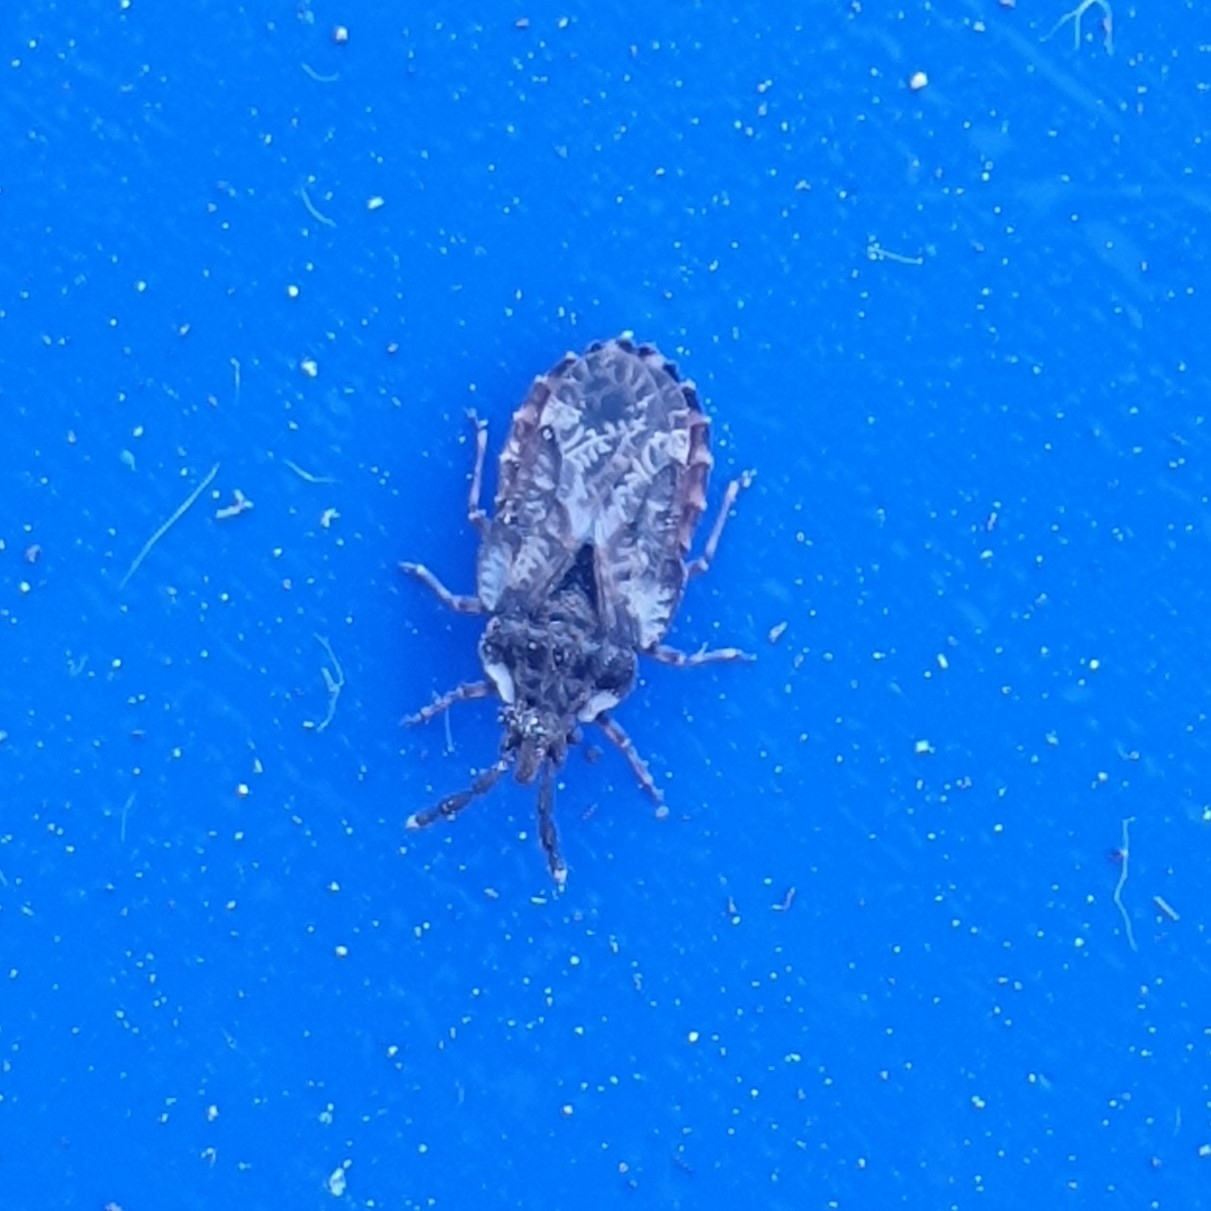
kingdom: Animalia
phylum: Arthropoda
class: Insecta
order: Hemiptera
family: Aradidae
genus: Aradus
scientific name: Aradus depressus
